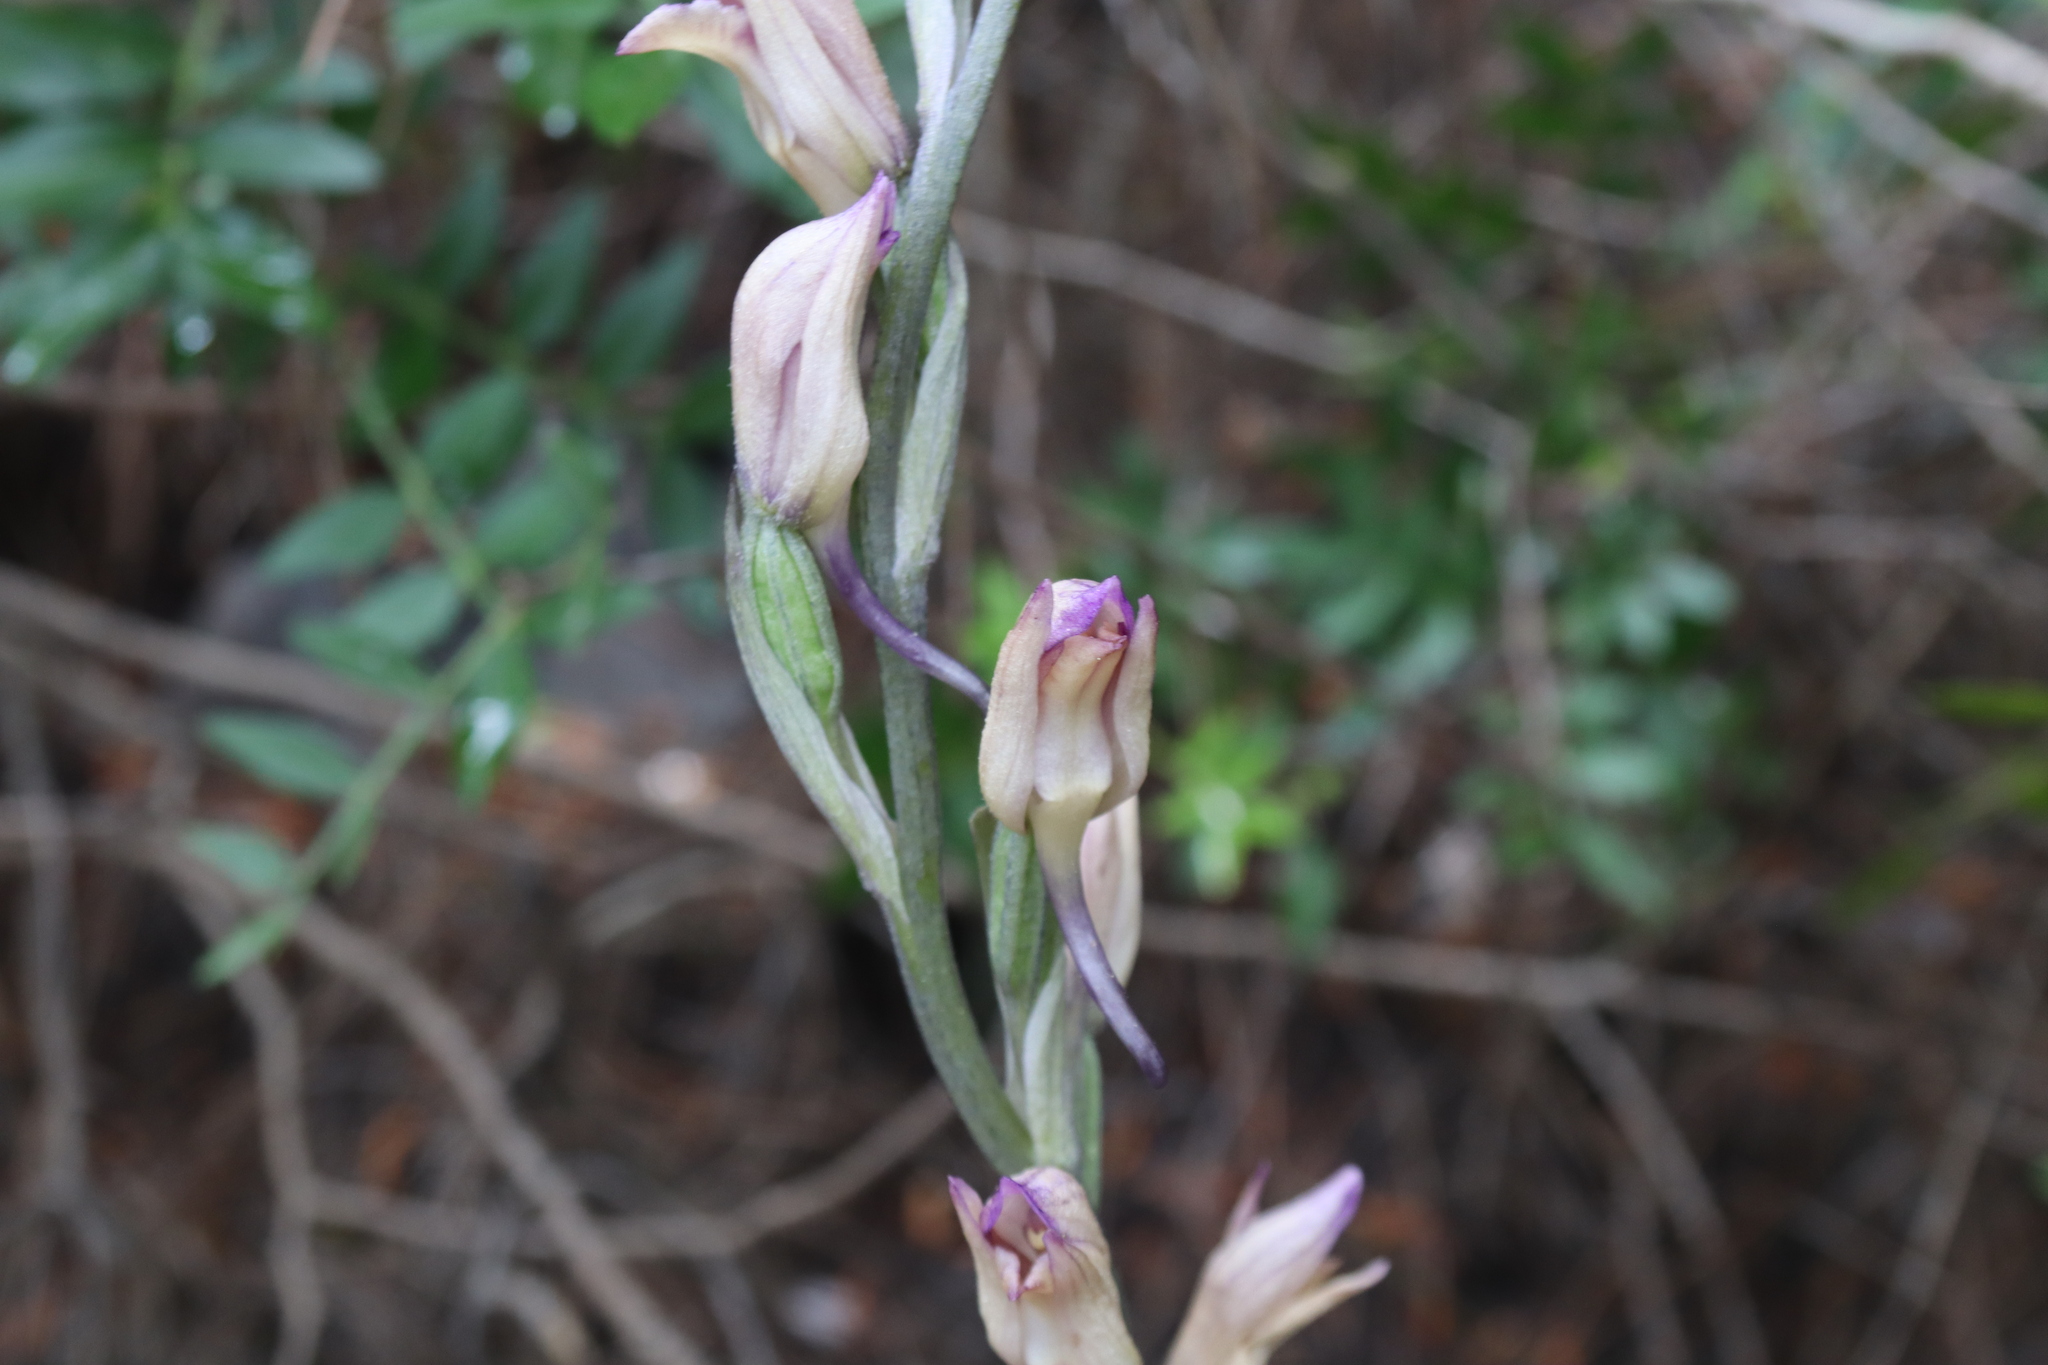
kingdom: Plantae
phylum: Tracheophyta
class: Liliopsida
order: Asparagales
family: Orchidaceae
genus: Limodorum
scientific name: Limodorum abortivum
